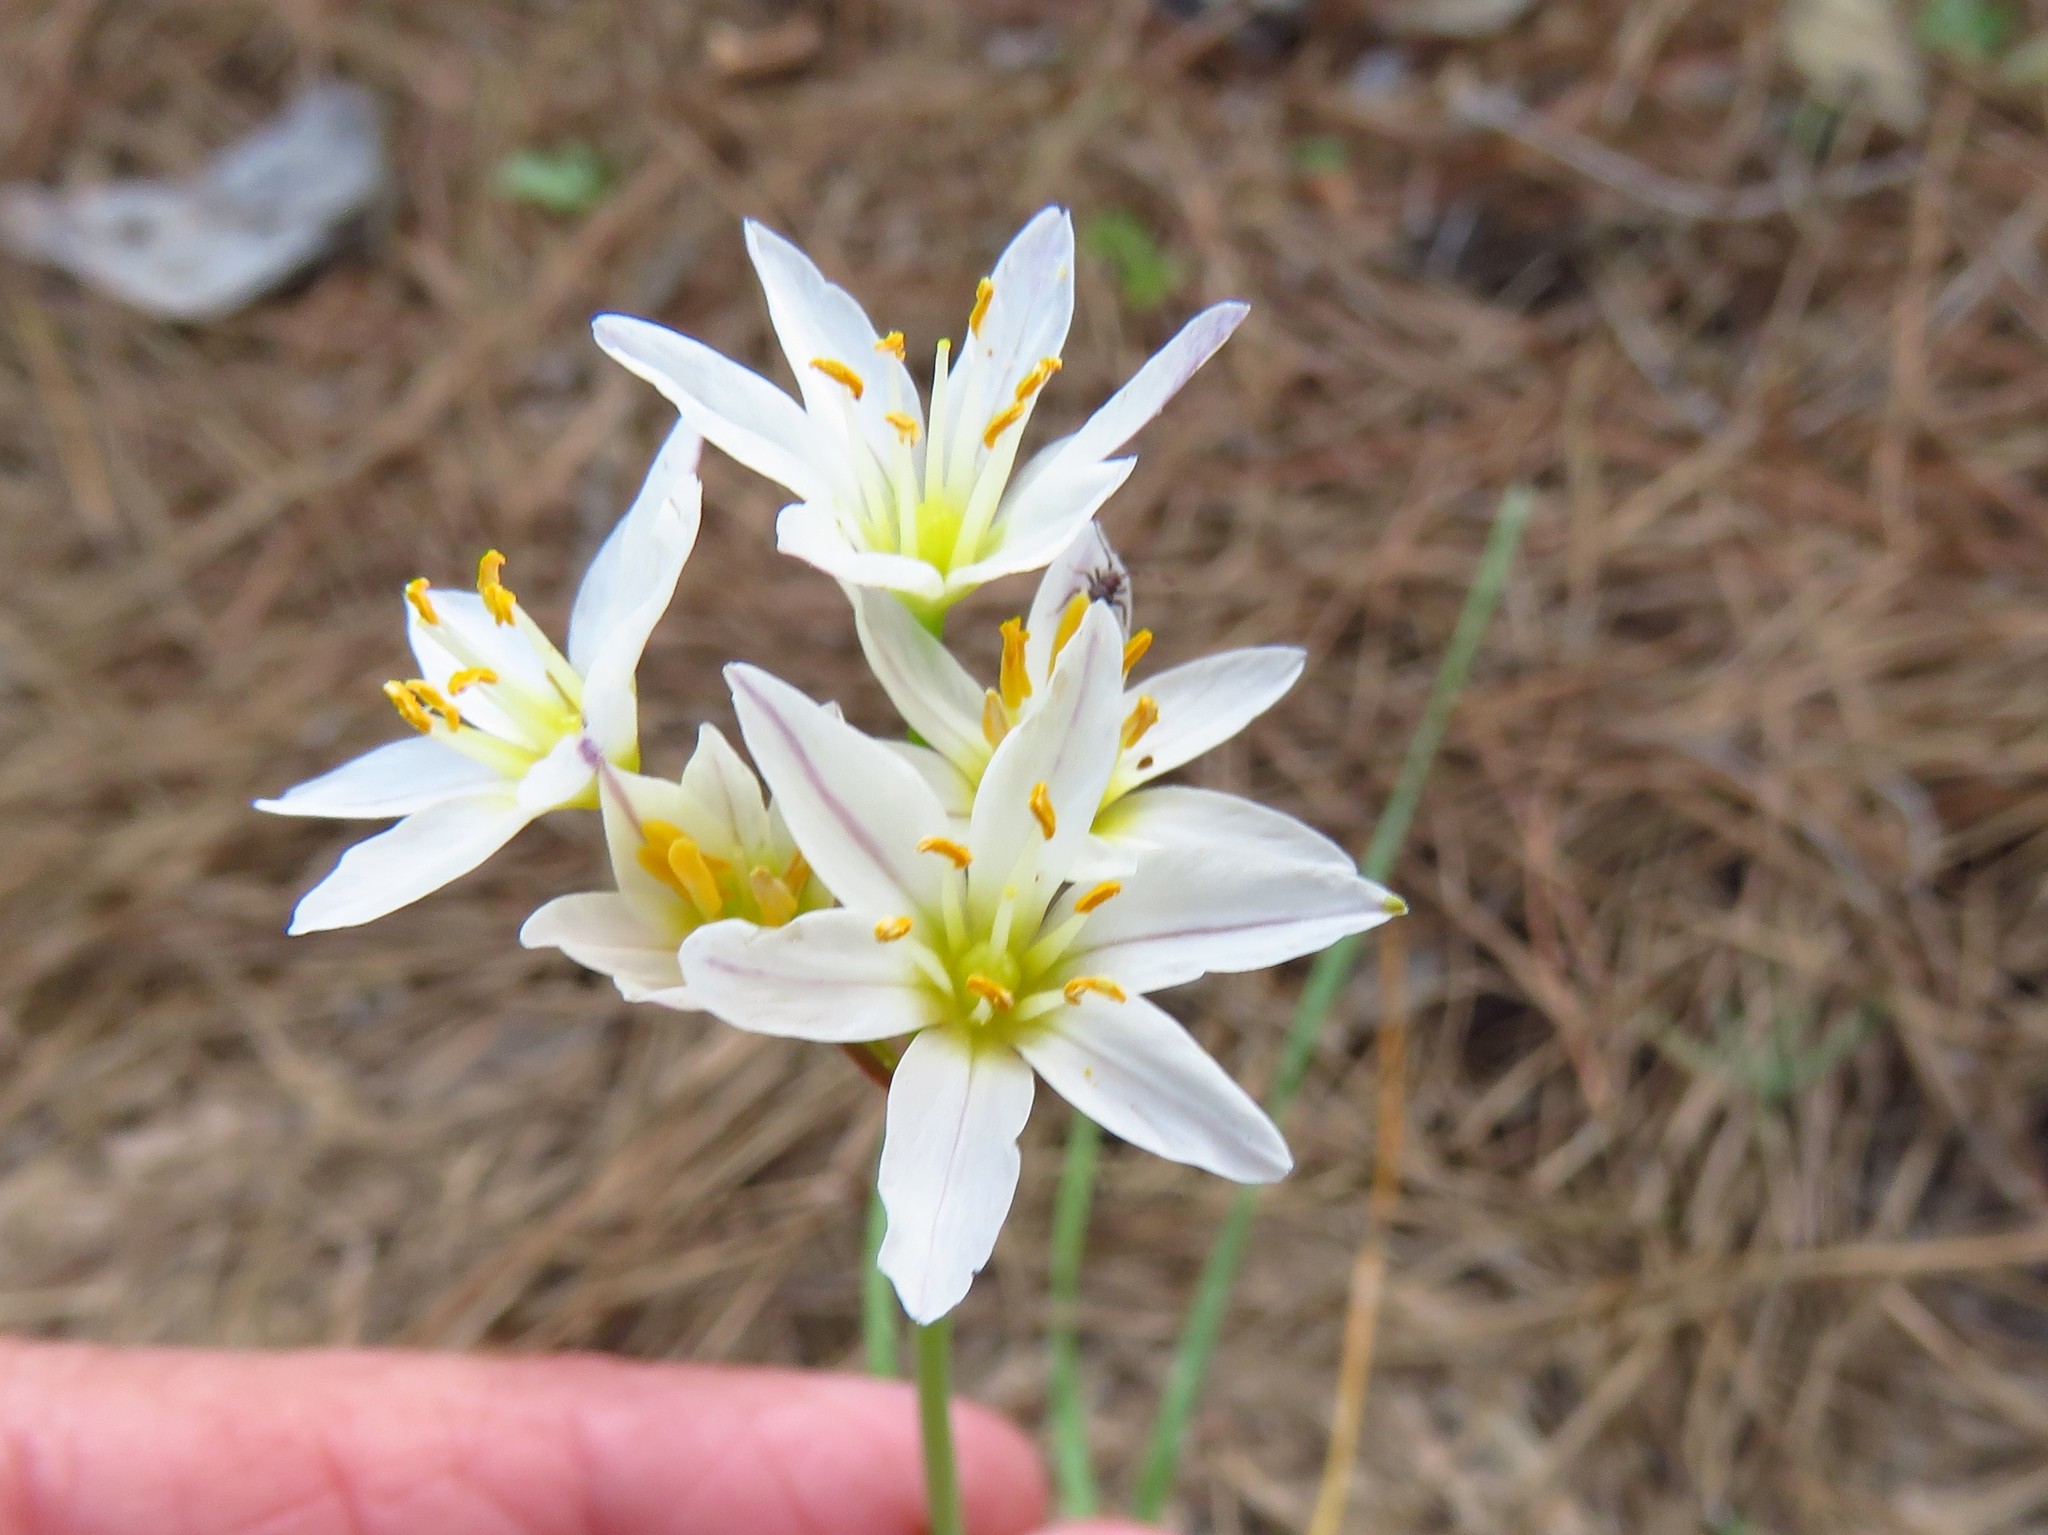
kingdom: Plantae
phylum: Tracheophyta
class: Liliopsida
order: Asparagales
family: Amaryllidaceae
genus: Nothoscordum
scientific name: Nothoscordum bivalve
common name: Crow-poison
